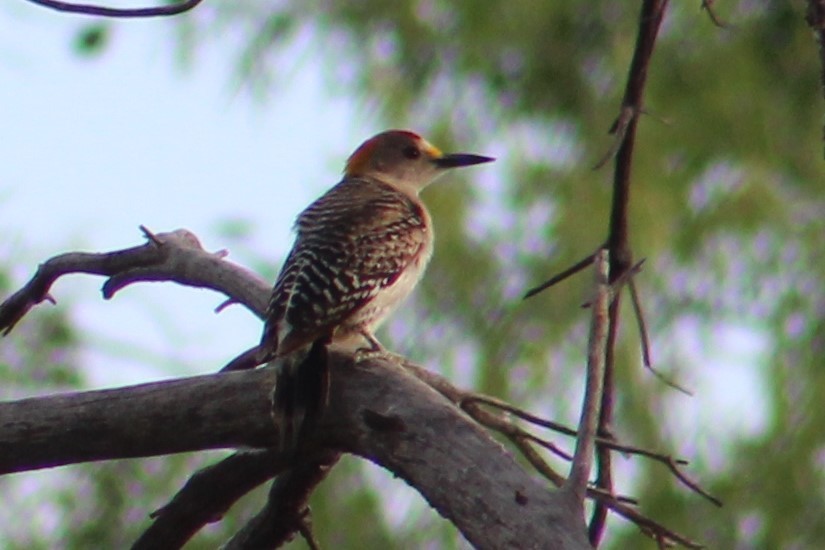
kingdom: Animalia
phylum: Chordata
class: Aves
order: Piciformes
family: Picidae
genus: Melanerpes
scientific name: Melanerpes aurifrons
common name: Golden-fronted woodpecker
